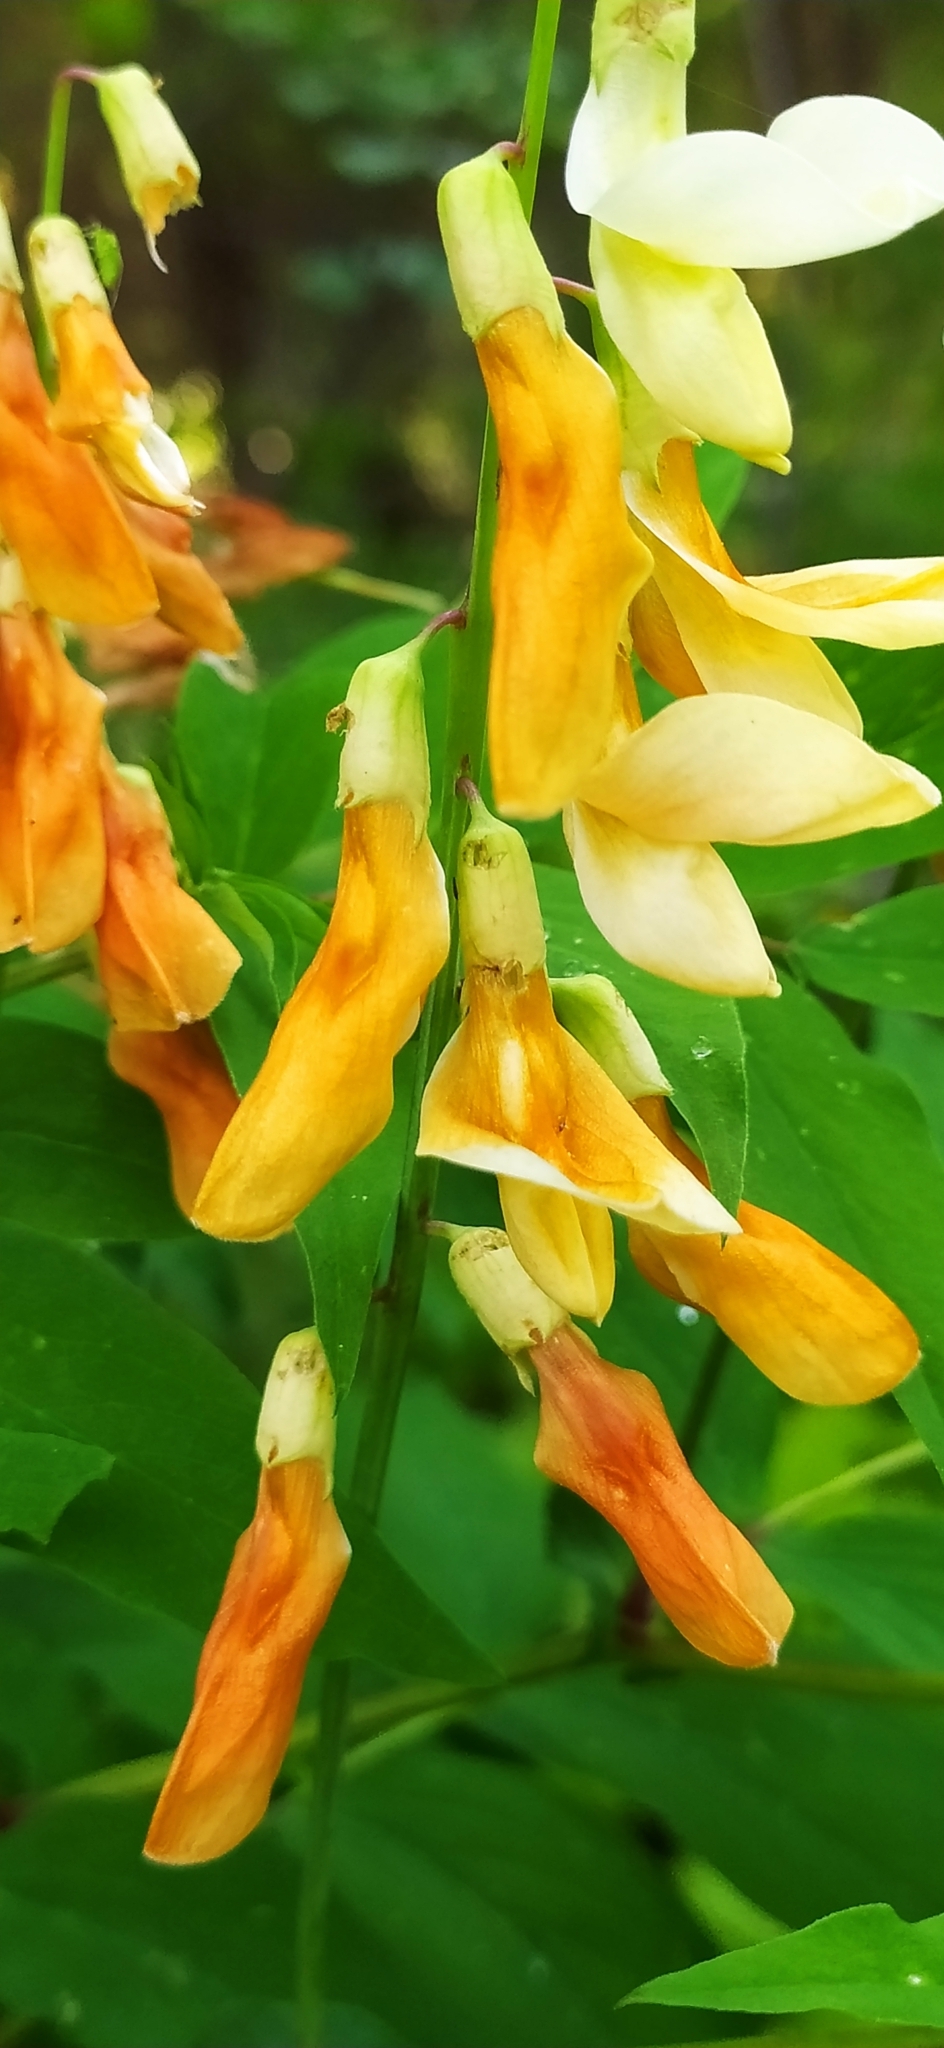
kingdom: Plantae
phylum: Tracheophyta
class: Magnoliopsida
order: Fabales
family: Fabaceae
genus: Lathyrus
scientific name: Lathyrus gmelinii
